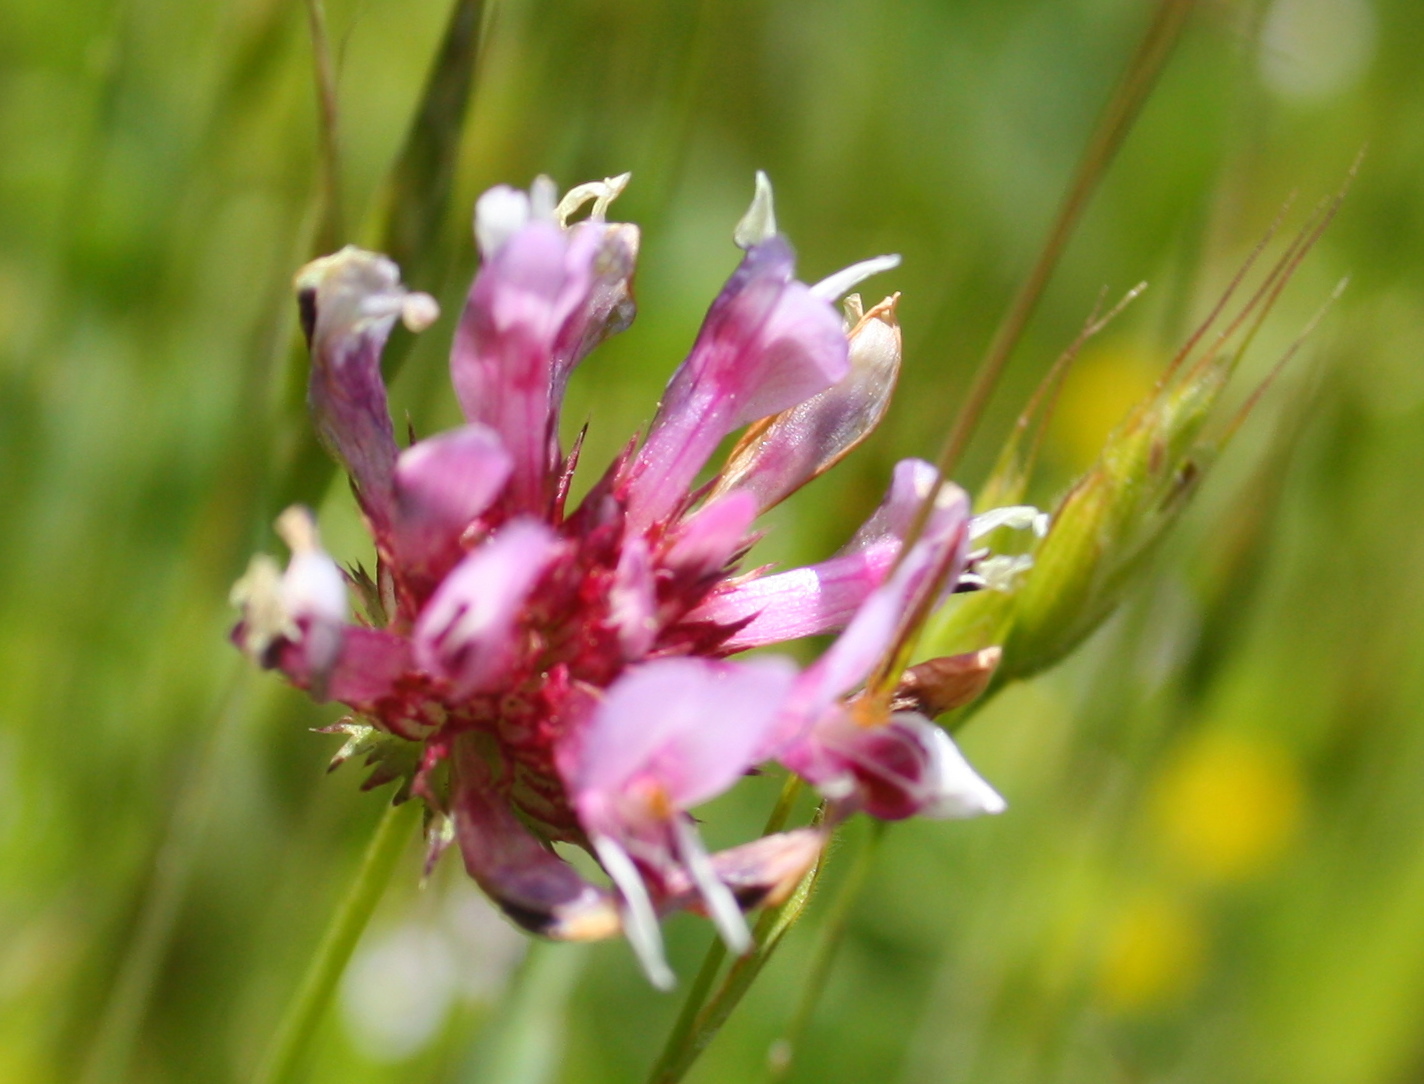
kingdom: Plantae
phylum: Tracheophyta
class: Magnoliopsida
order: Fabales
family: Fabaceae
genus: Trifolium
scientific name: Trifolium willdenovii
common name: Tomcat clover
